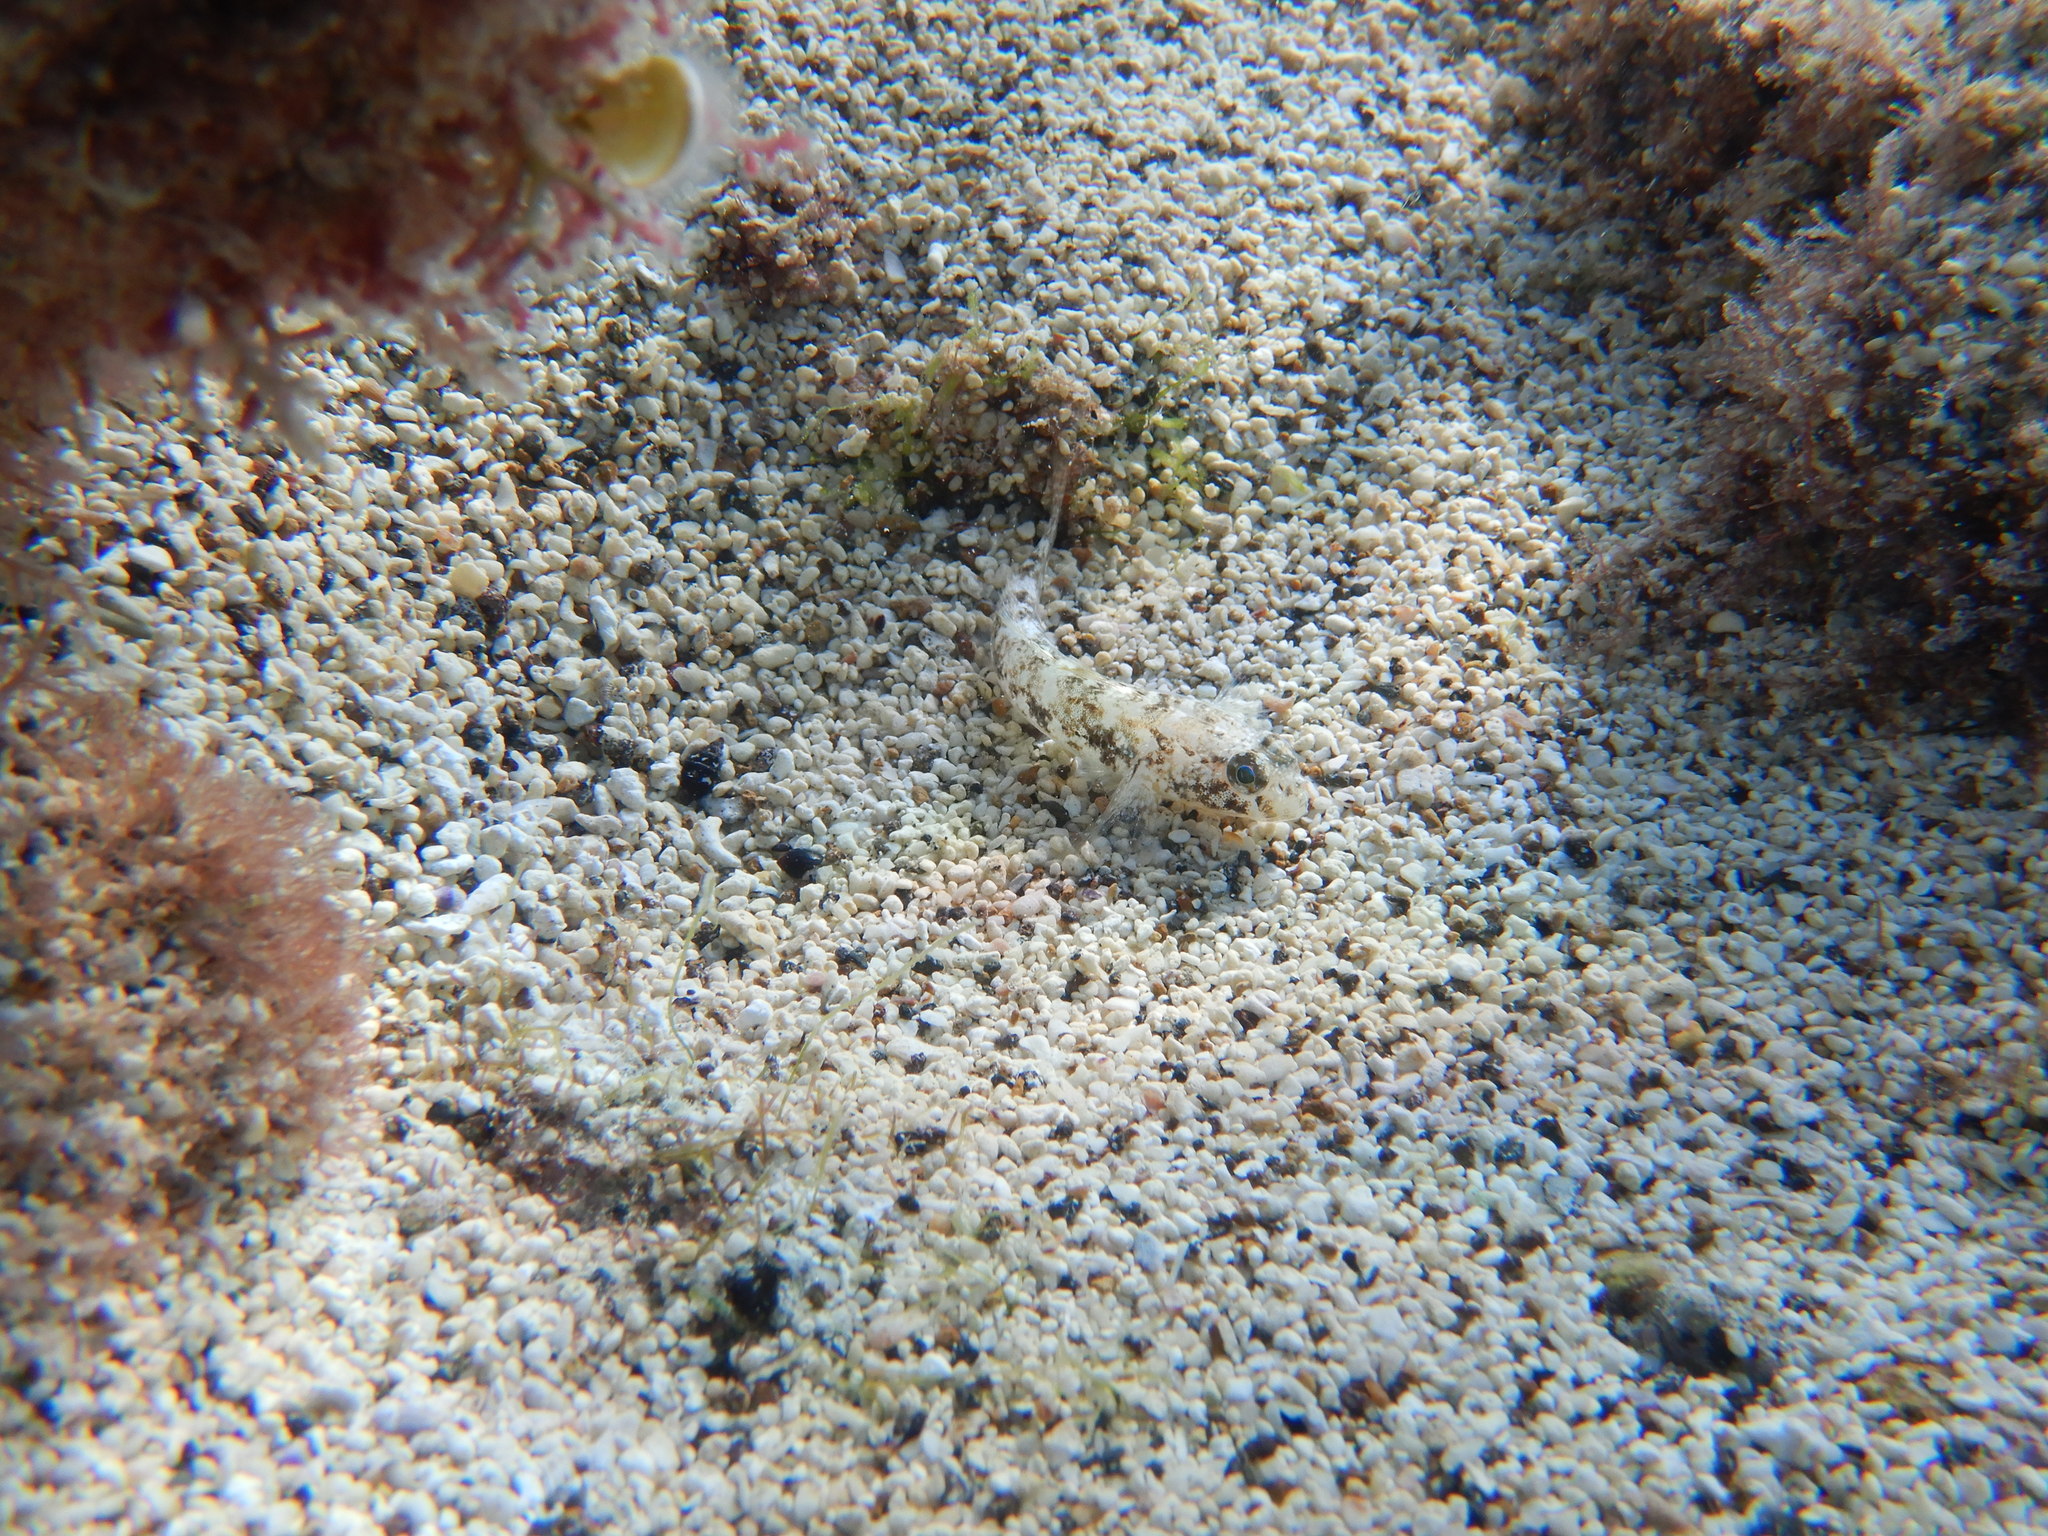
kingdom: Animalia
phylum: Chordata
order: Perciformes
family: Gobiidae
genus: Gobius
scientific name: Gobius niger
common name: Black goby
